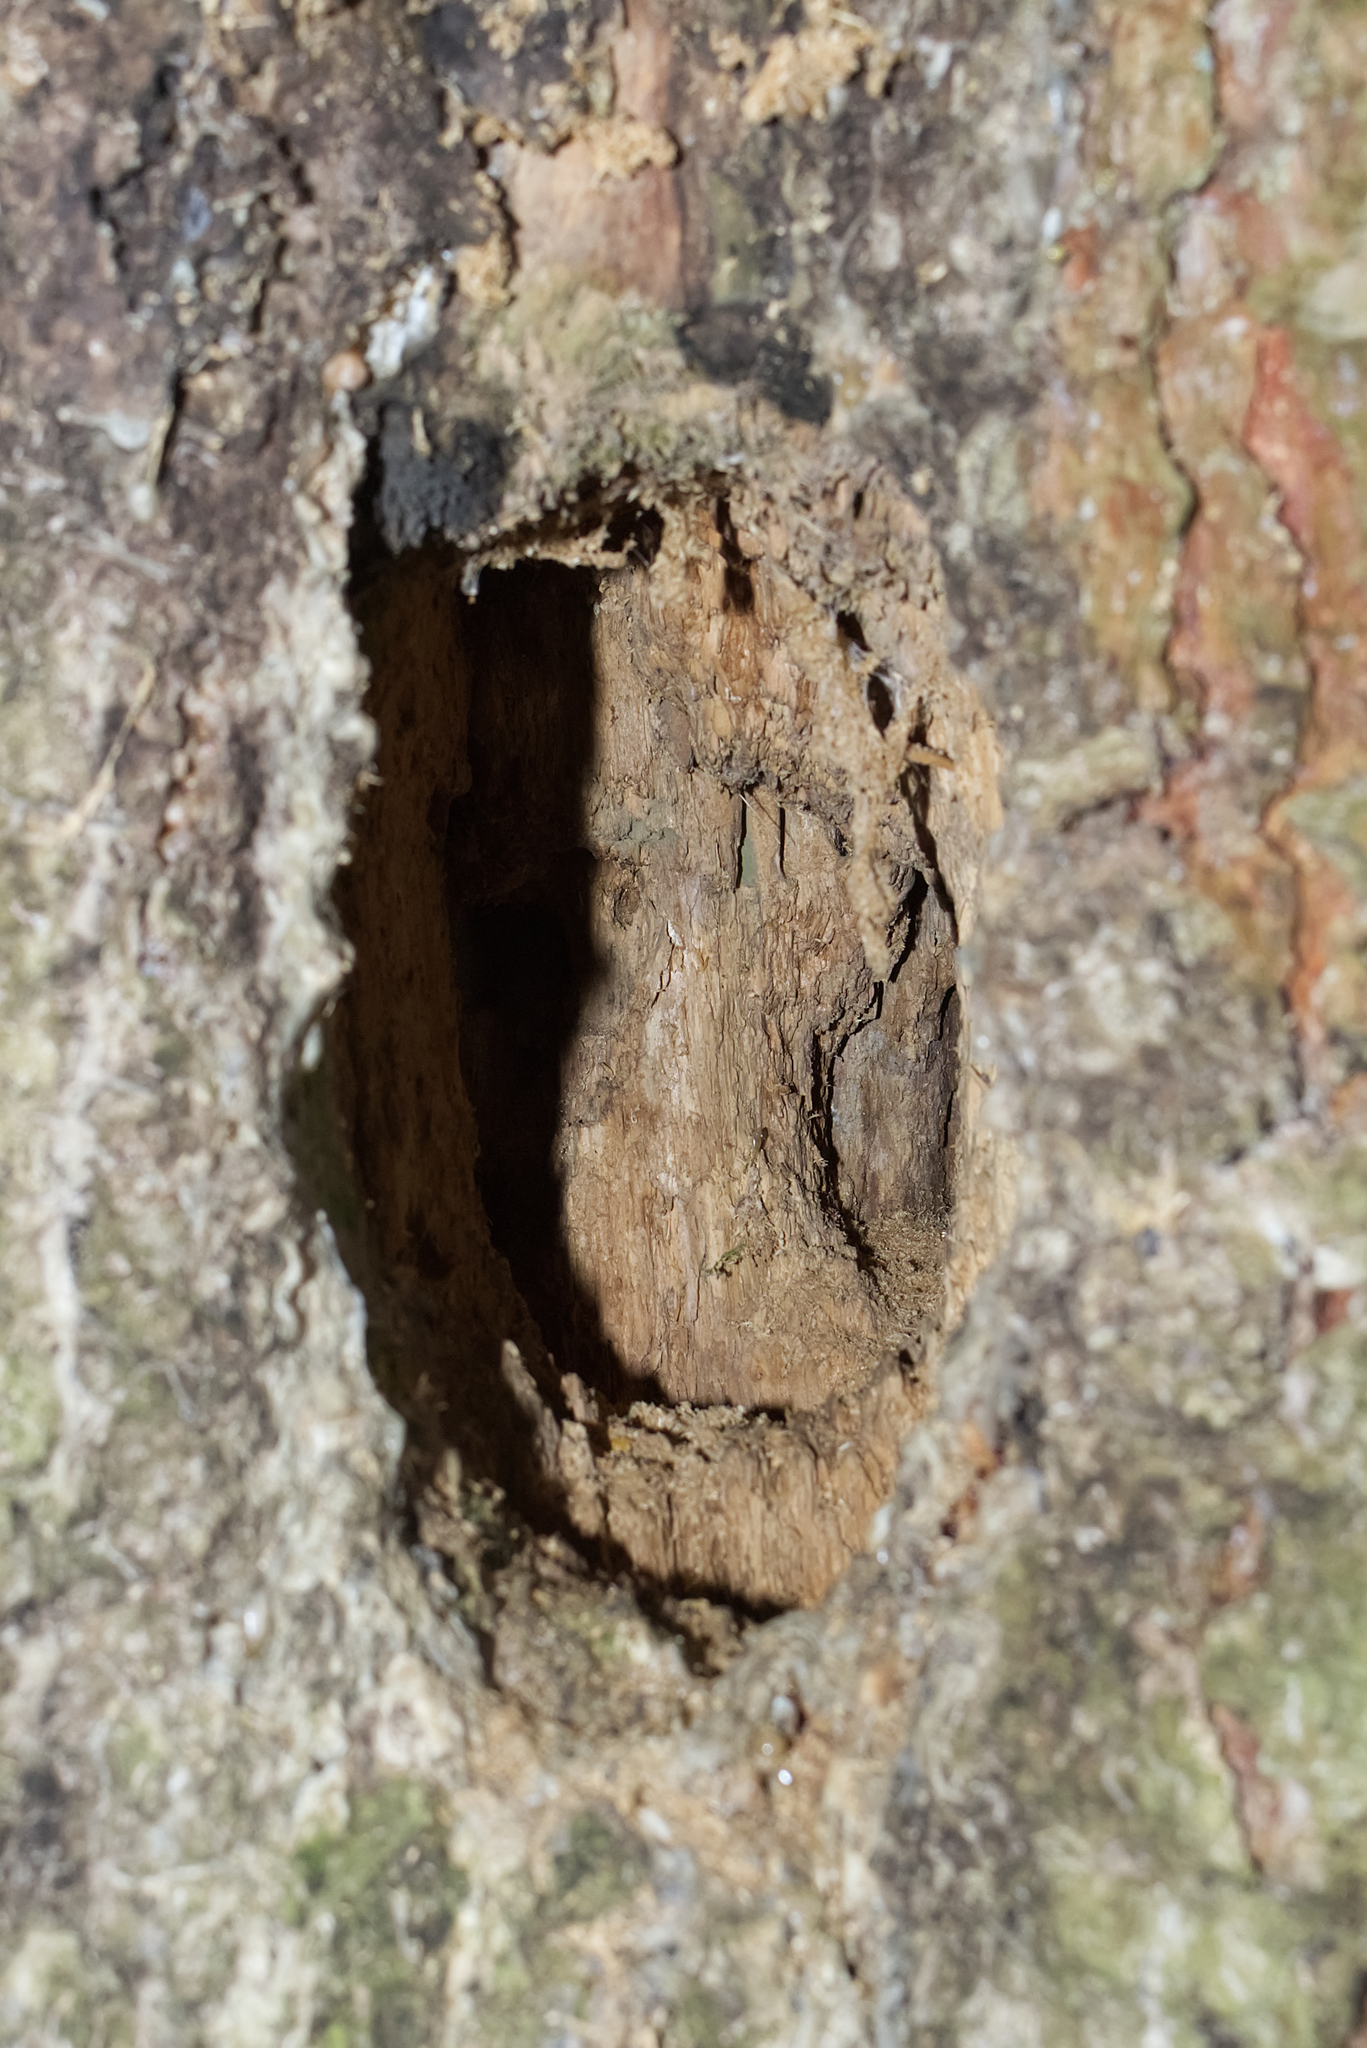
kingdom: Animalia
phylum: Chordata
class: Aves
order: Piciformes
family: Picidae
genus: Dryocopus
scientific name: Dryocopus martius
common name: Black woodpecker
